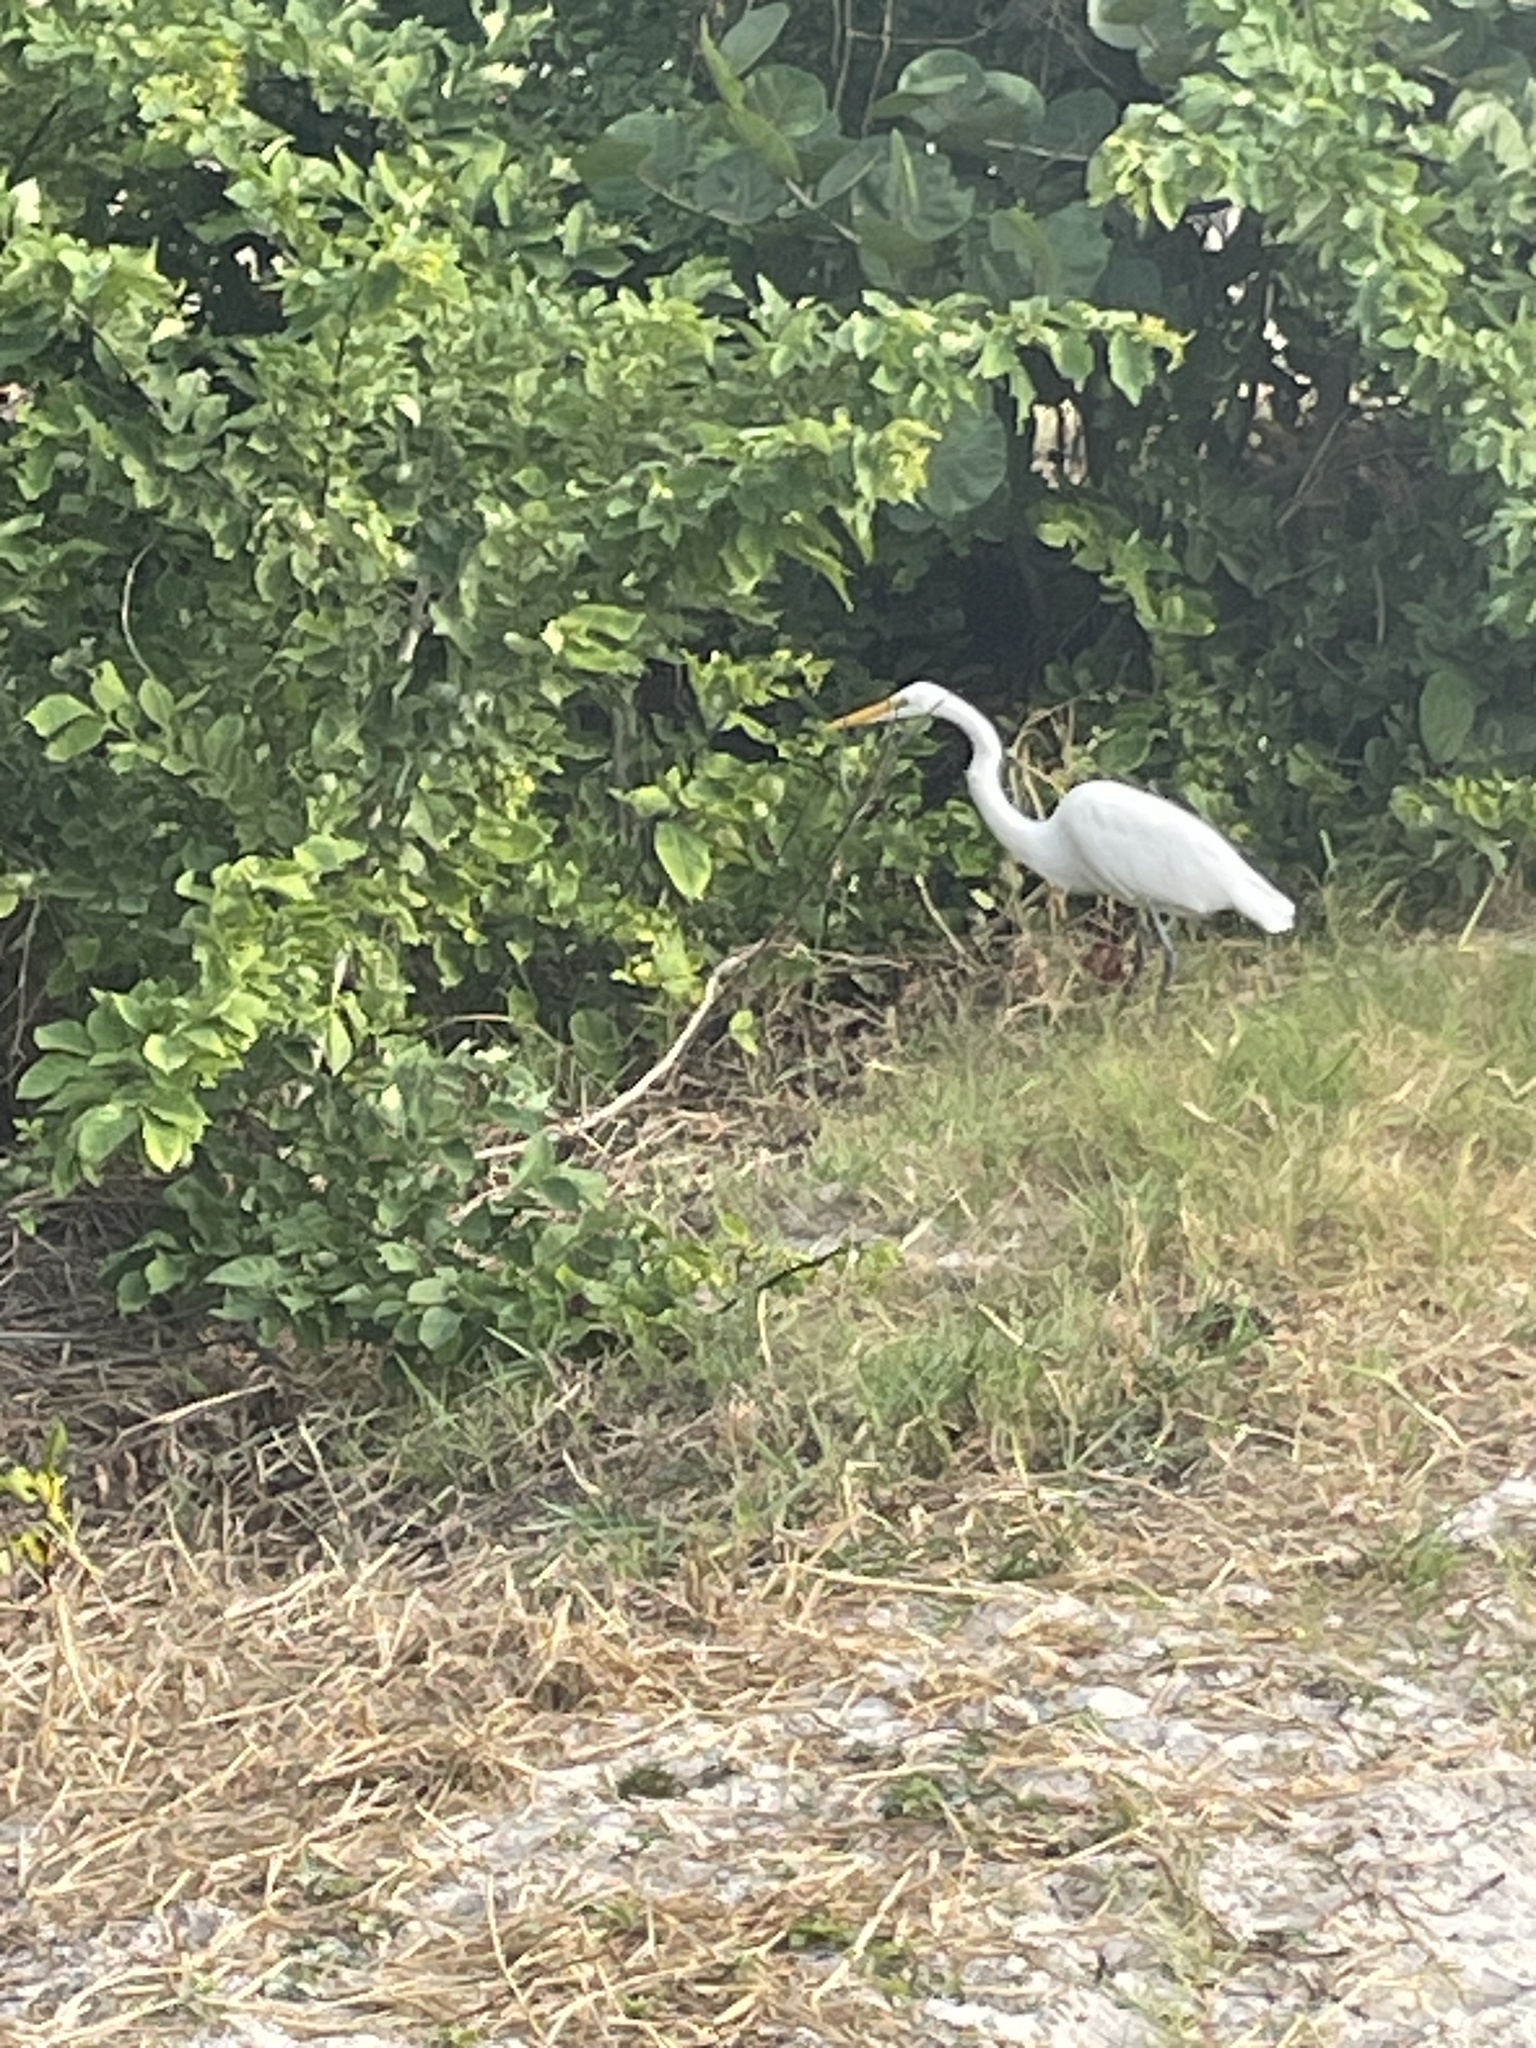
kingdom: Animalia
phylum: Chordata
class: Aves
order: Pelecaniformes
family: Ardeidae
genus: Ardea
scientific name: Ardea alba
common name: Great egret
